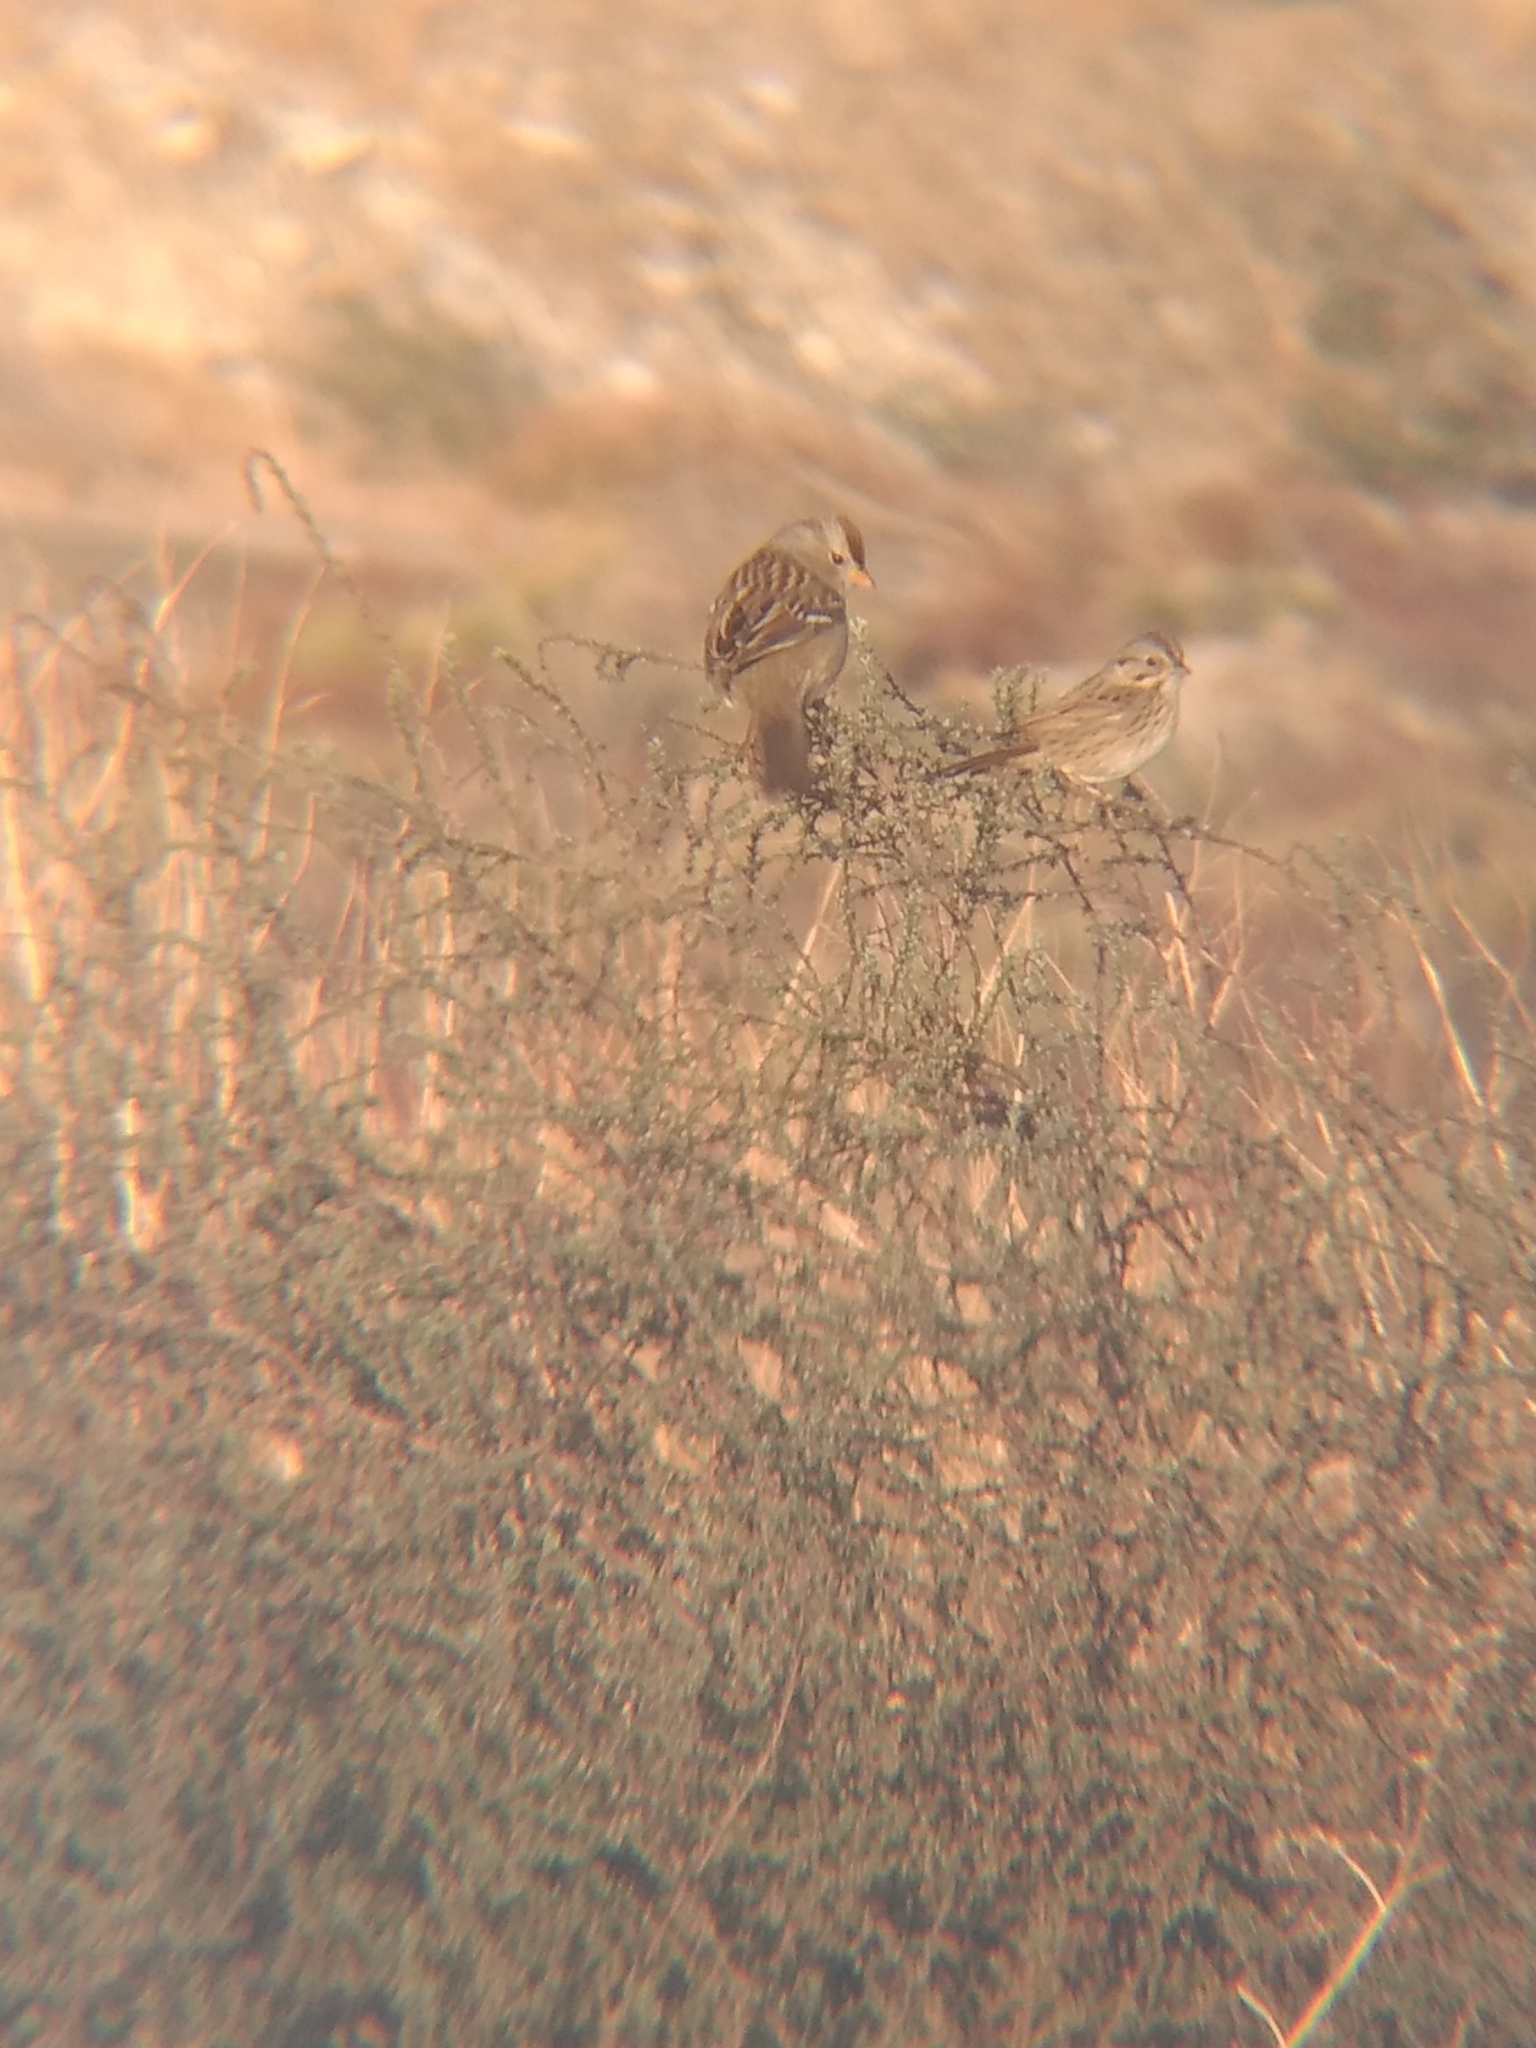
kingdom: Animalia
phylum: Chordata
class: Aves
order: Passeriformes
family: Passerellidae
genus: Melospiza
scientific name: Melospiza lincolnii
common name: Lincoln's sparrow
